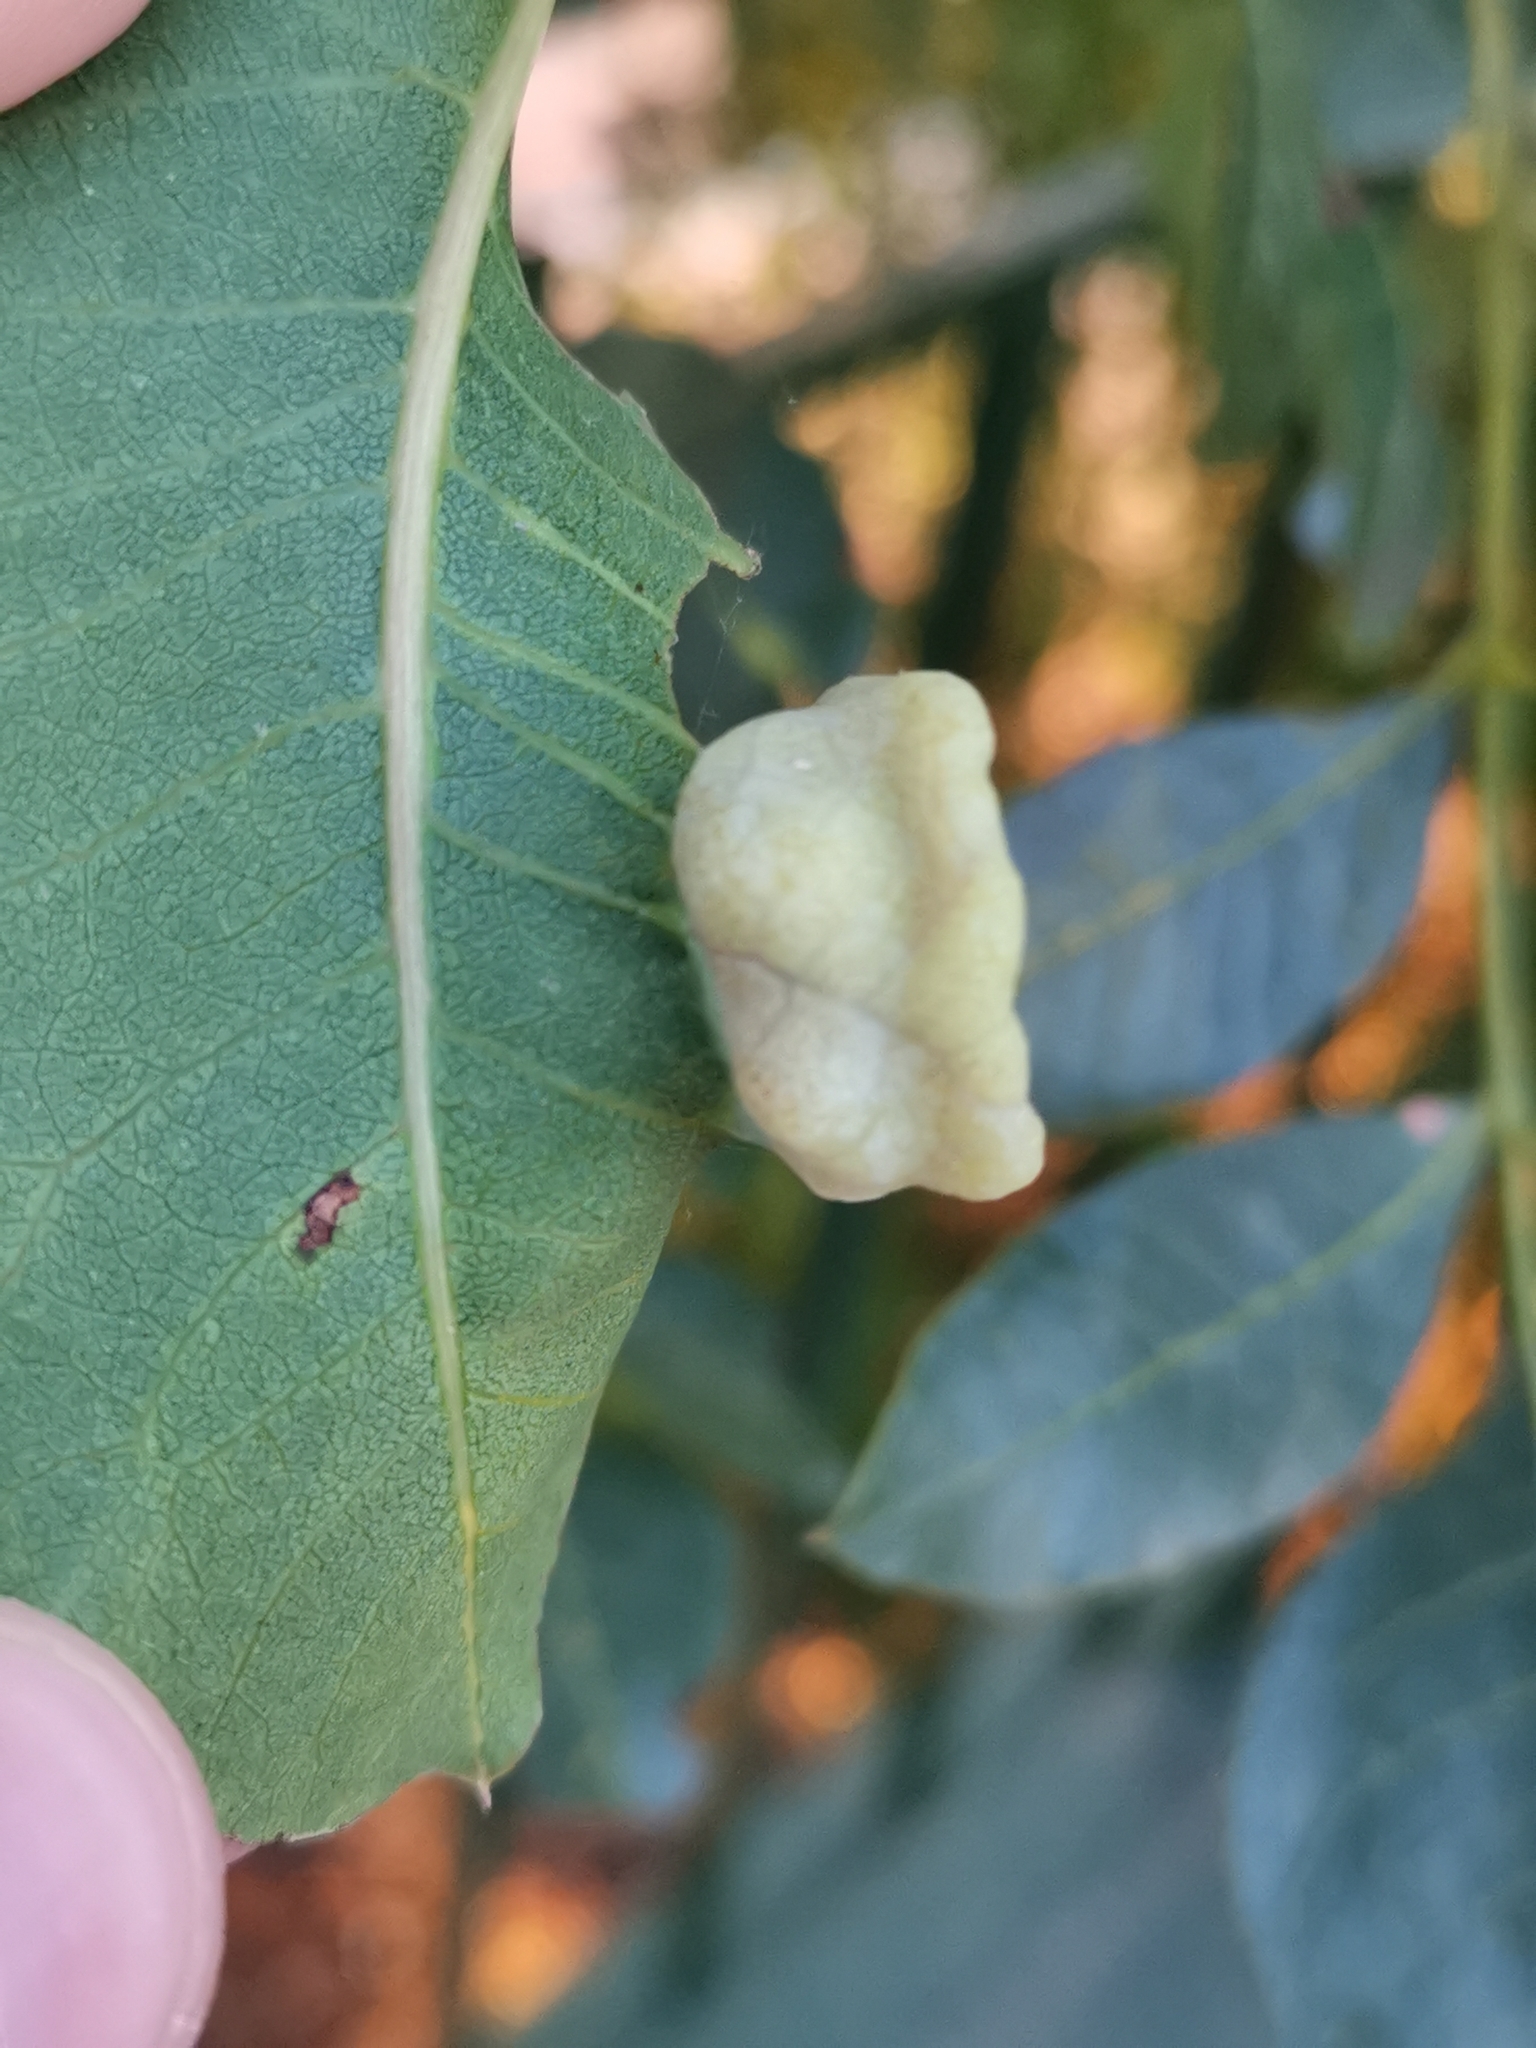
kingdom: Animalia
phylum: Arthropoda
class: Insecta
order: Hemiptera
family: Aphididae
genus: Forda
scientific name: Forda formicaria
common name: Root aphid
